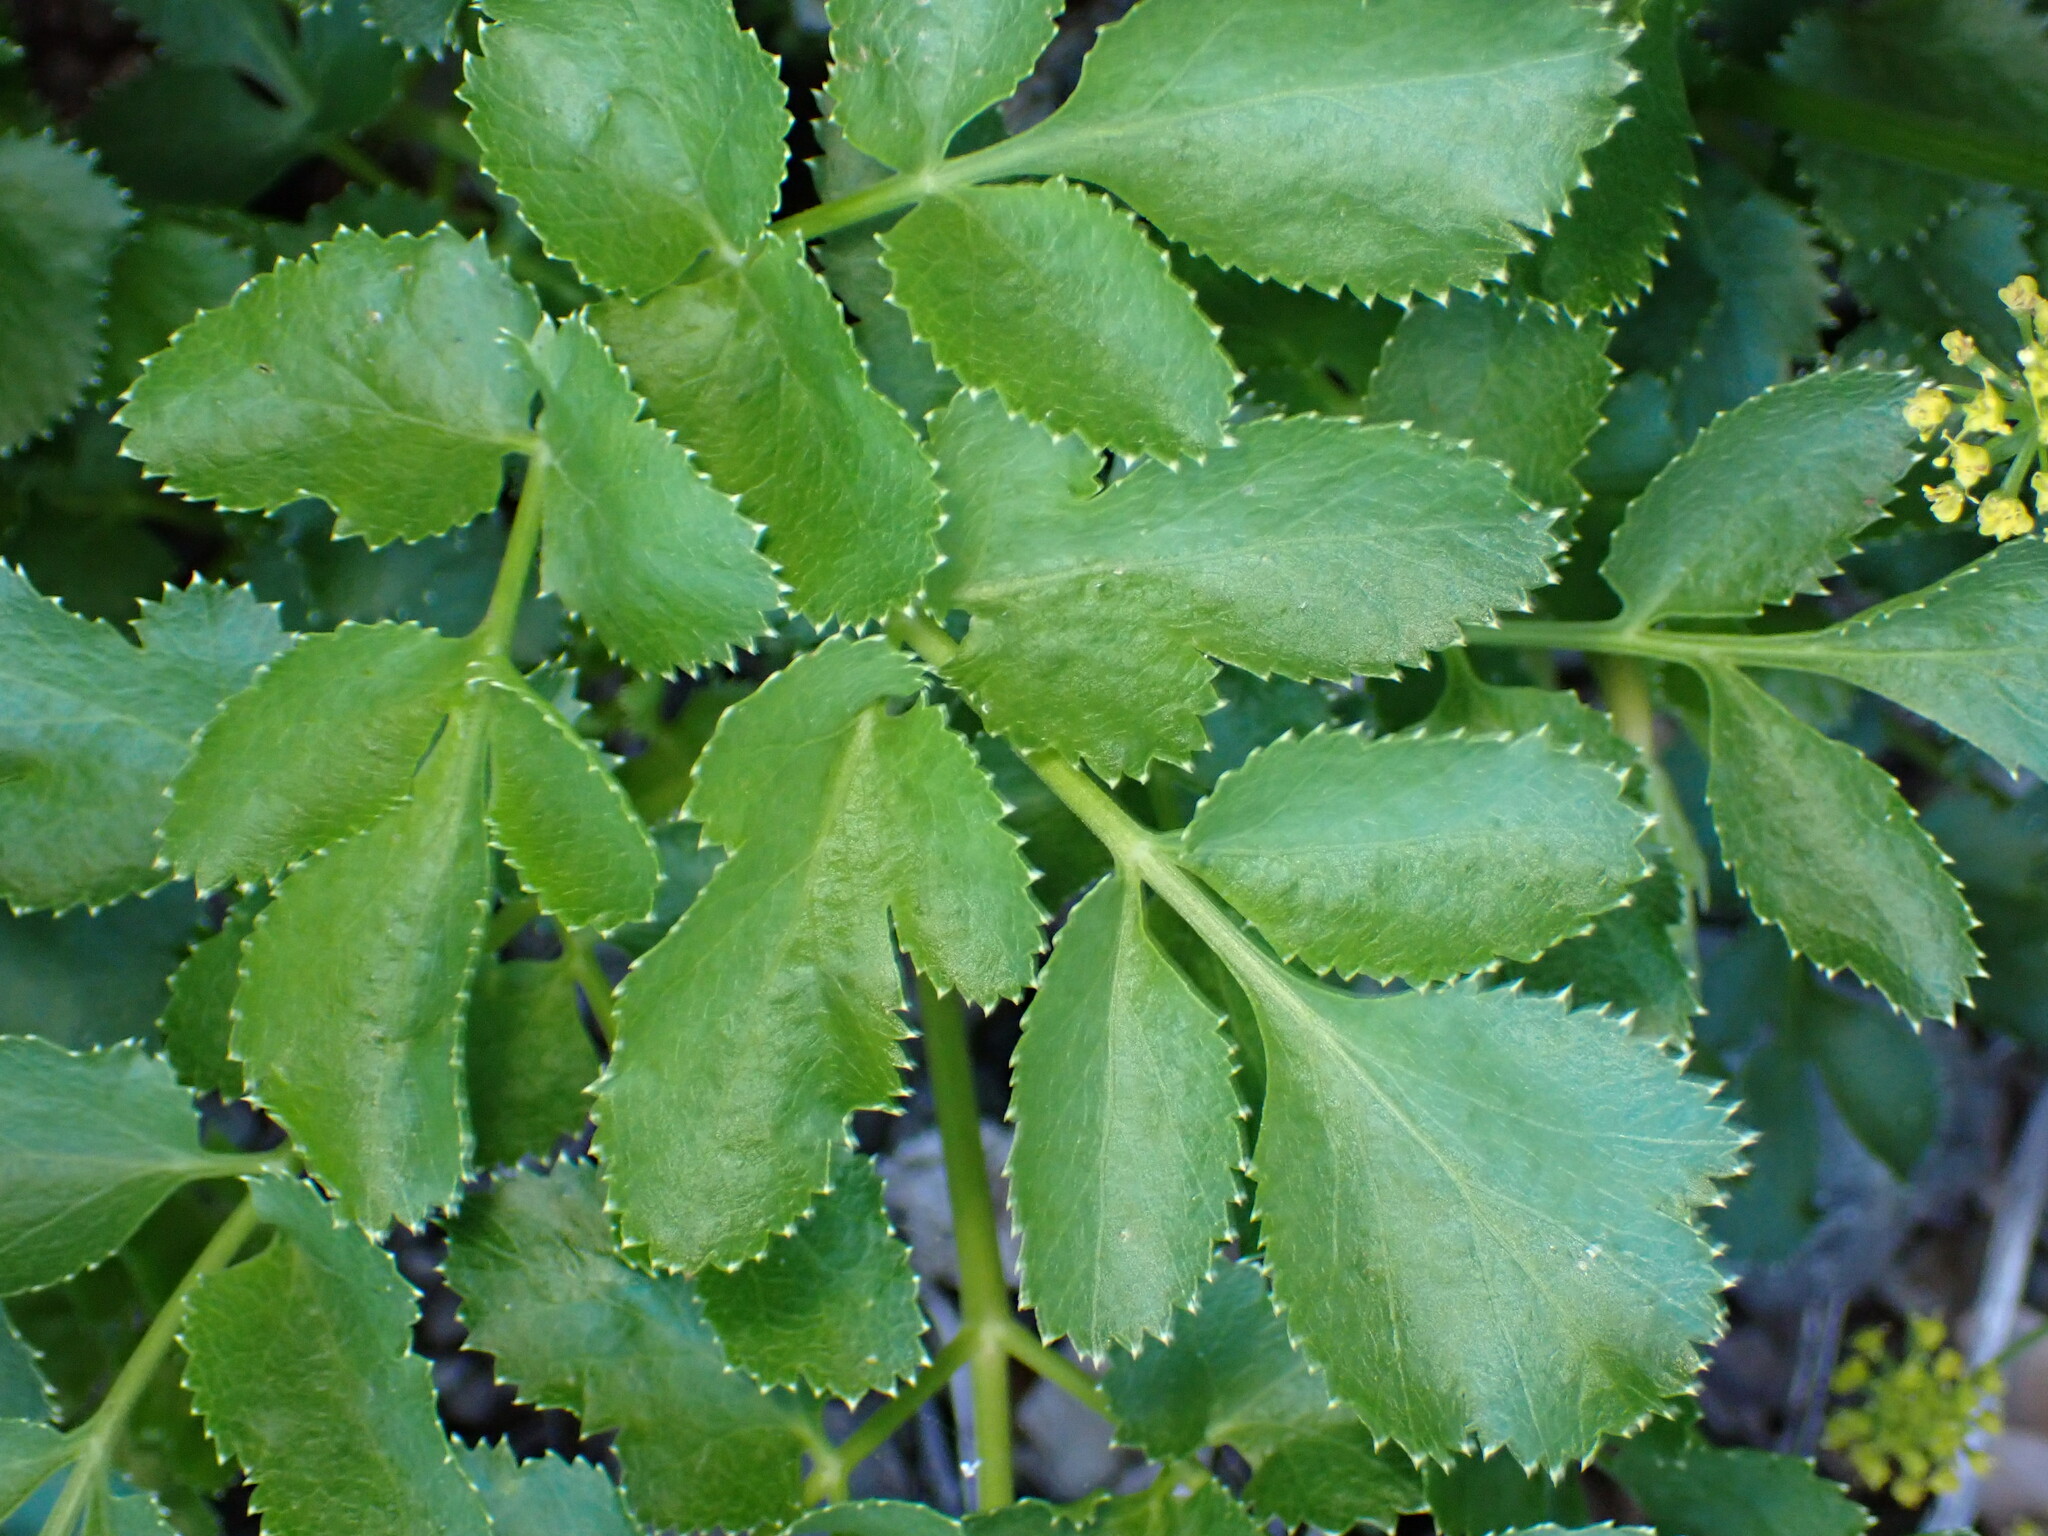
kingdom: Plantae
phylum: Tracheophyta
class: Magnoliopsida
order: Apiales
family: Apiaceae
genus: Tauschia
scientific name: Tauschia hartwegii
